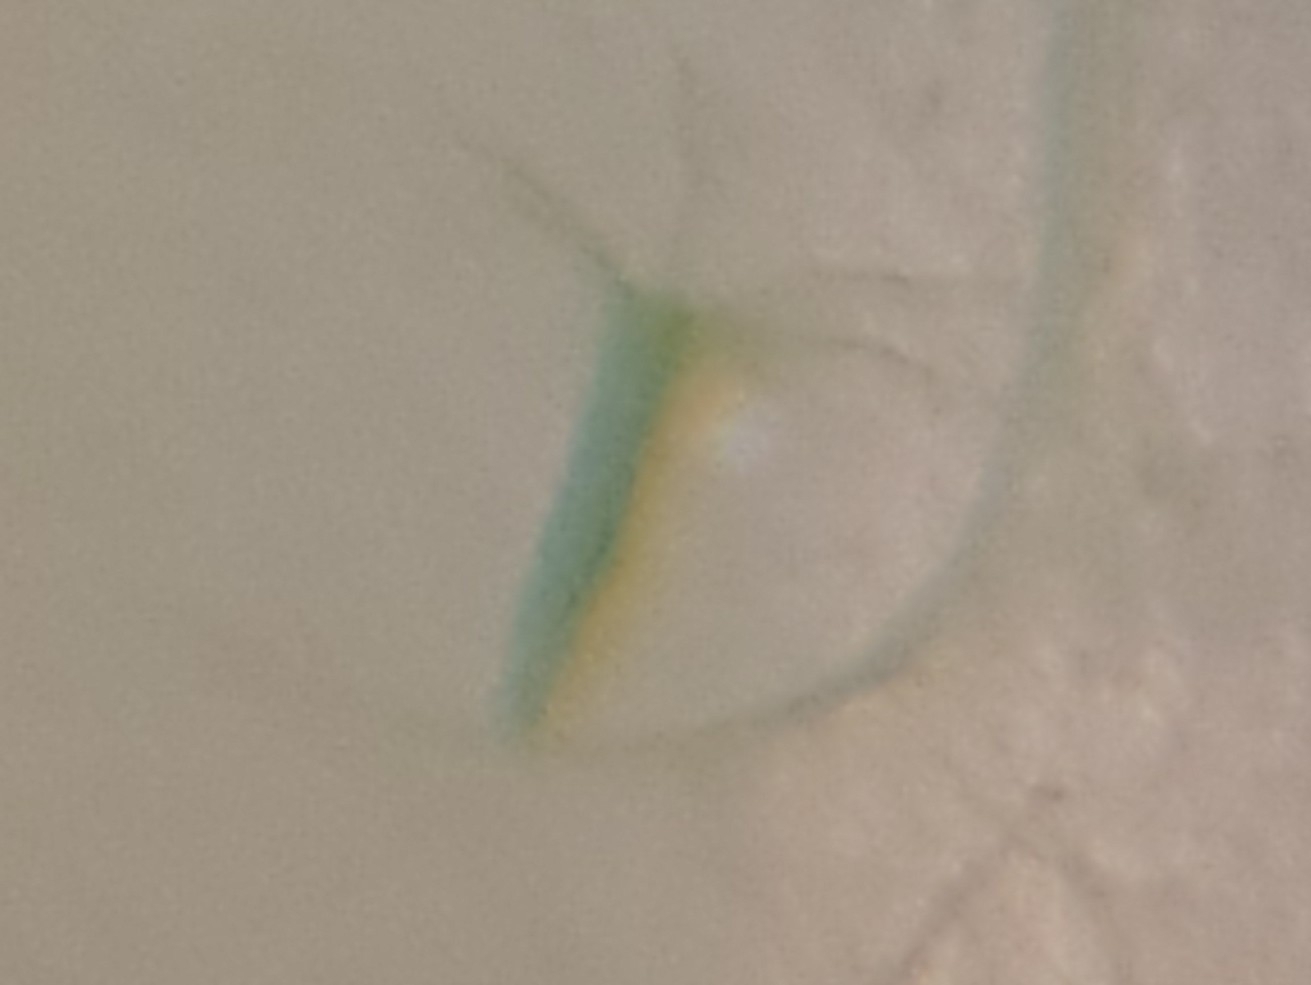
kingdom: Animalia
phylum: Cnidaria
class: Hydrozoa
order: Anthoathecata
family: Hydridae
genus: Hydra
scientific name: Hydra viridissima
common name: Green hydra
